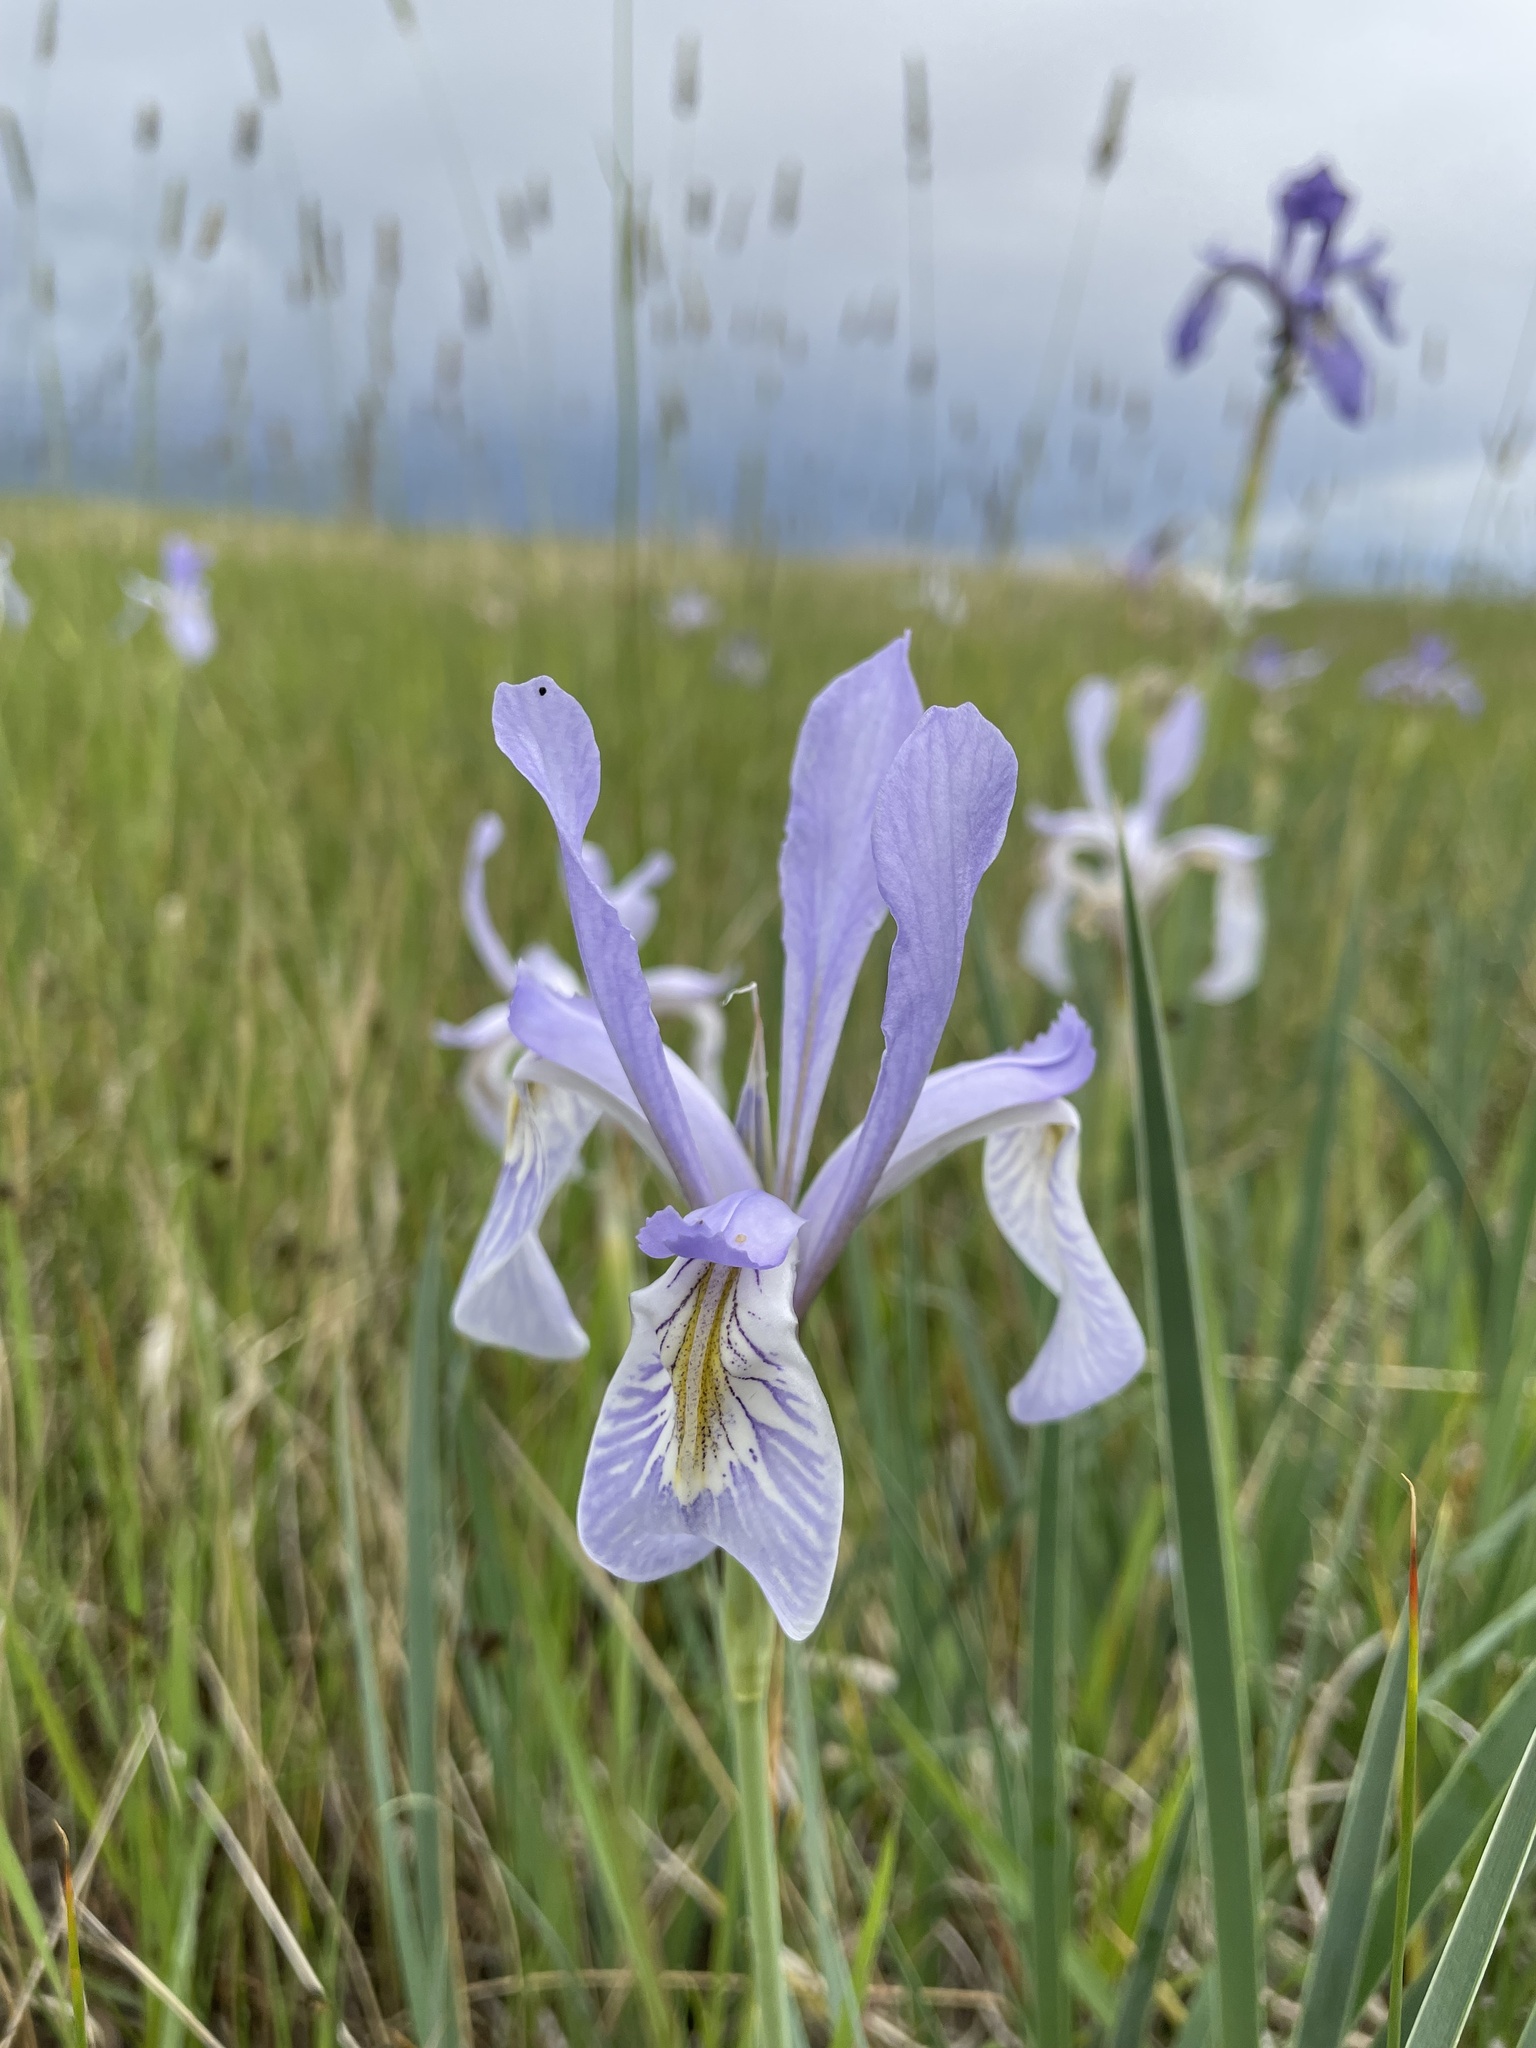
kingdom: Plantae
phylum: Tracheophyta
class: Liliopsida
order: Asparagales
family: Iridaceae
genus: Iris
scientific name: Iris missouriensis
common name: Rocky mountain iris
